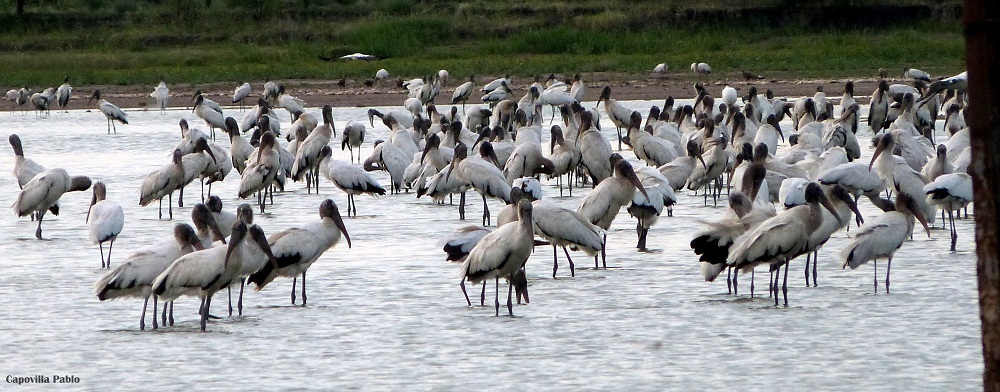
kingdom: Animalia
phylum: Chordata
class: Aves
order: Ciconiiformes
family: Ciconiidae
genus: Mycteria
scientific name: Mycteria americana
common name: Wood stork
